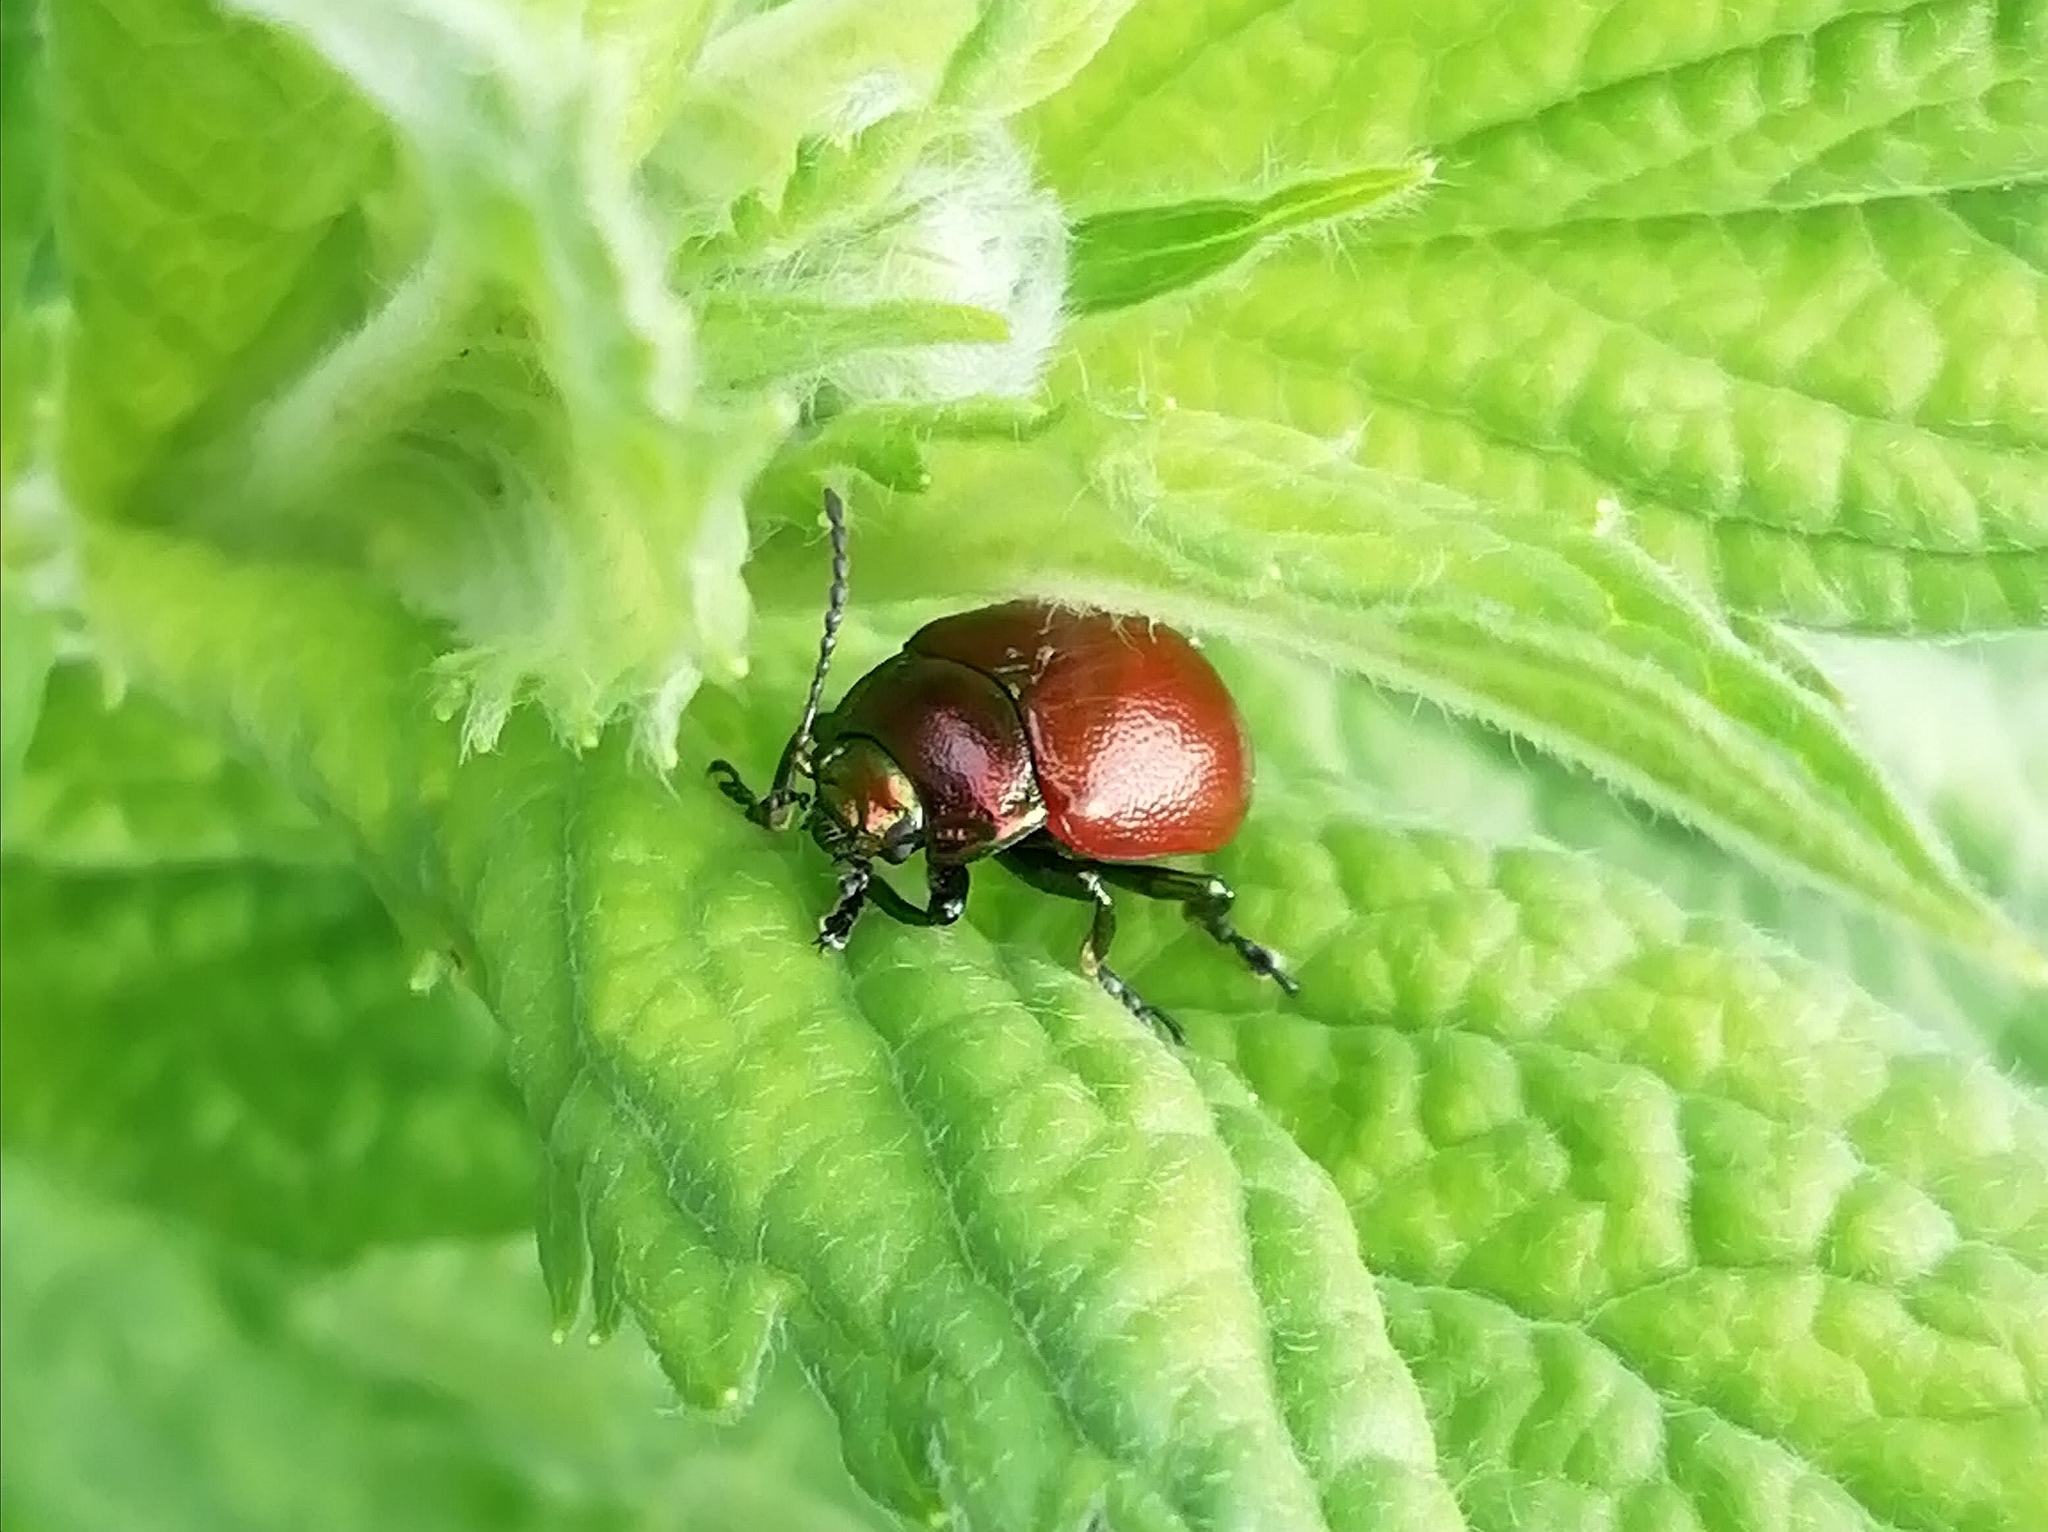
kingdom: Animalia
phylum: Arthropoda
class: Insecta
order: Coleoptera
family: Chrysomelidae
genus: Chrysomela
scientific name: Chrysomela polita
